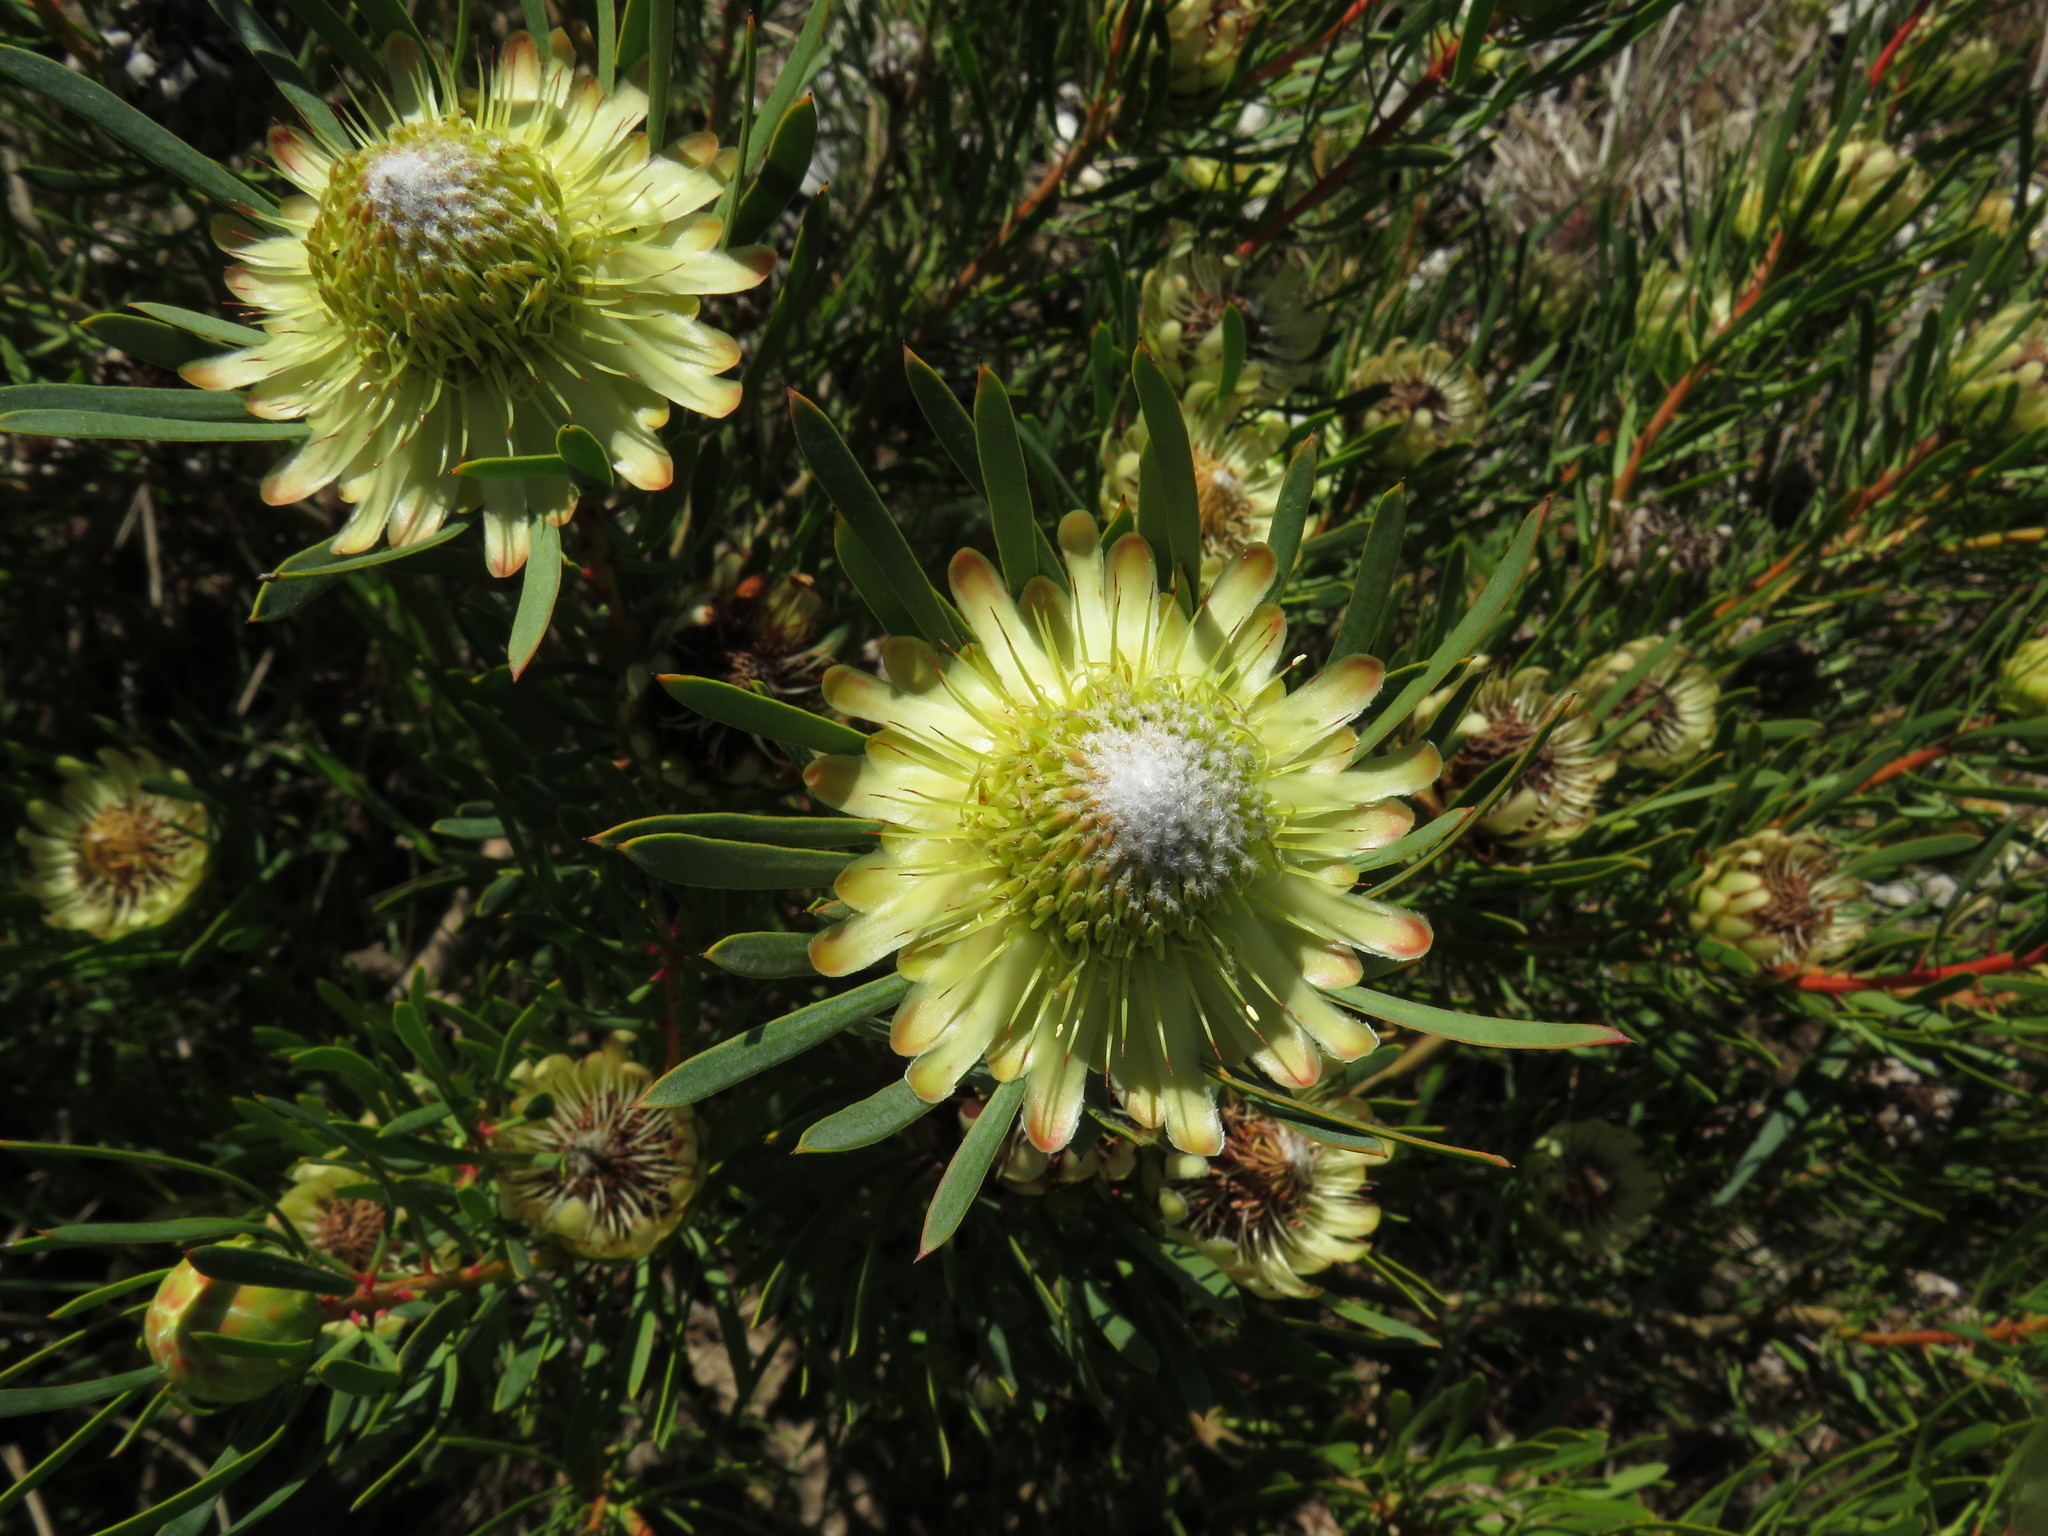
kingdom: Plantae
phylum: Tracheophyta
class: Magnoliopsida
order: Proteales
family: Proteaceae
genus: Protea
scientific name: Protea scolymocephala
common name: Thistle sugarbush
